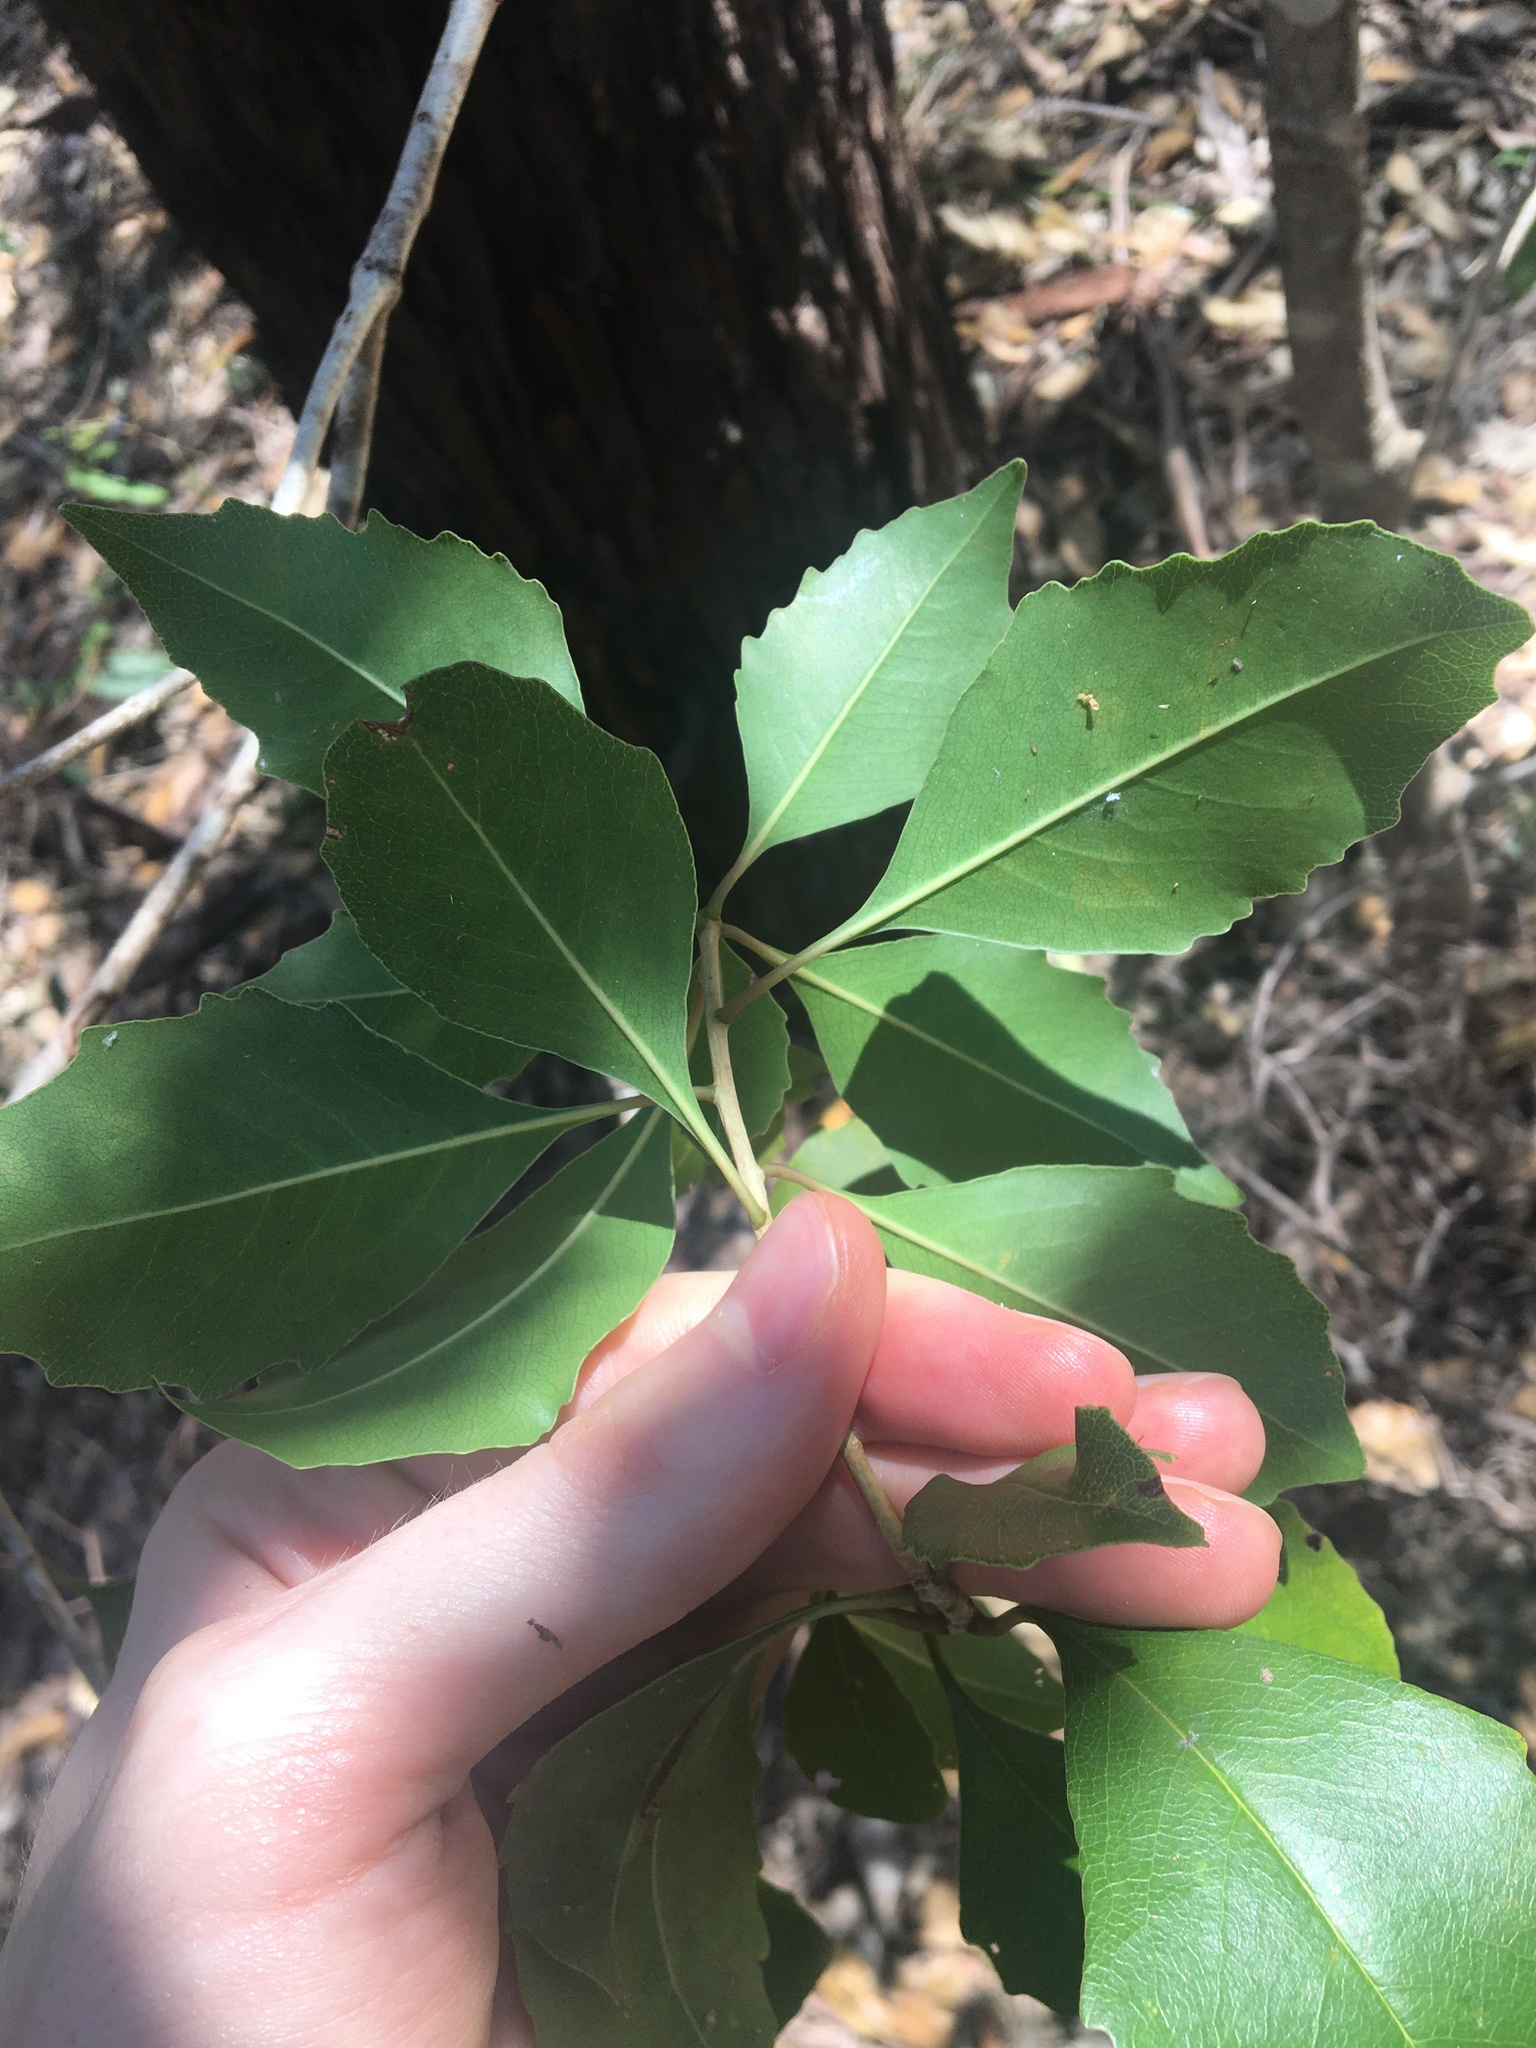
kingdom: Plantae
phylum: Tracheophyta
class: Magnoliopsida
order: Apiales
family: Pittosporaceae
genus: Auranticarpa
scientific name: Auranticarpa rhombifolia
